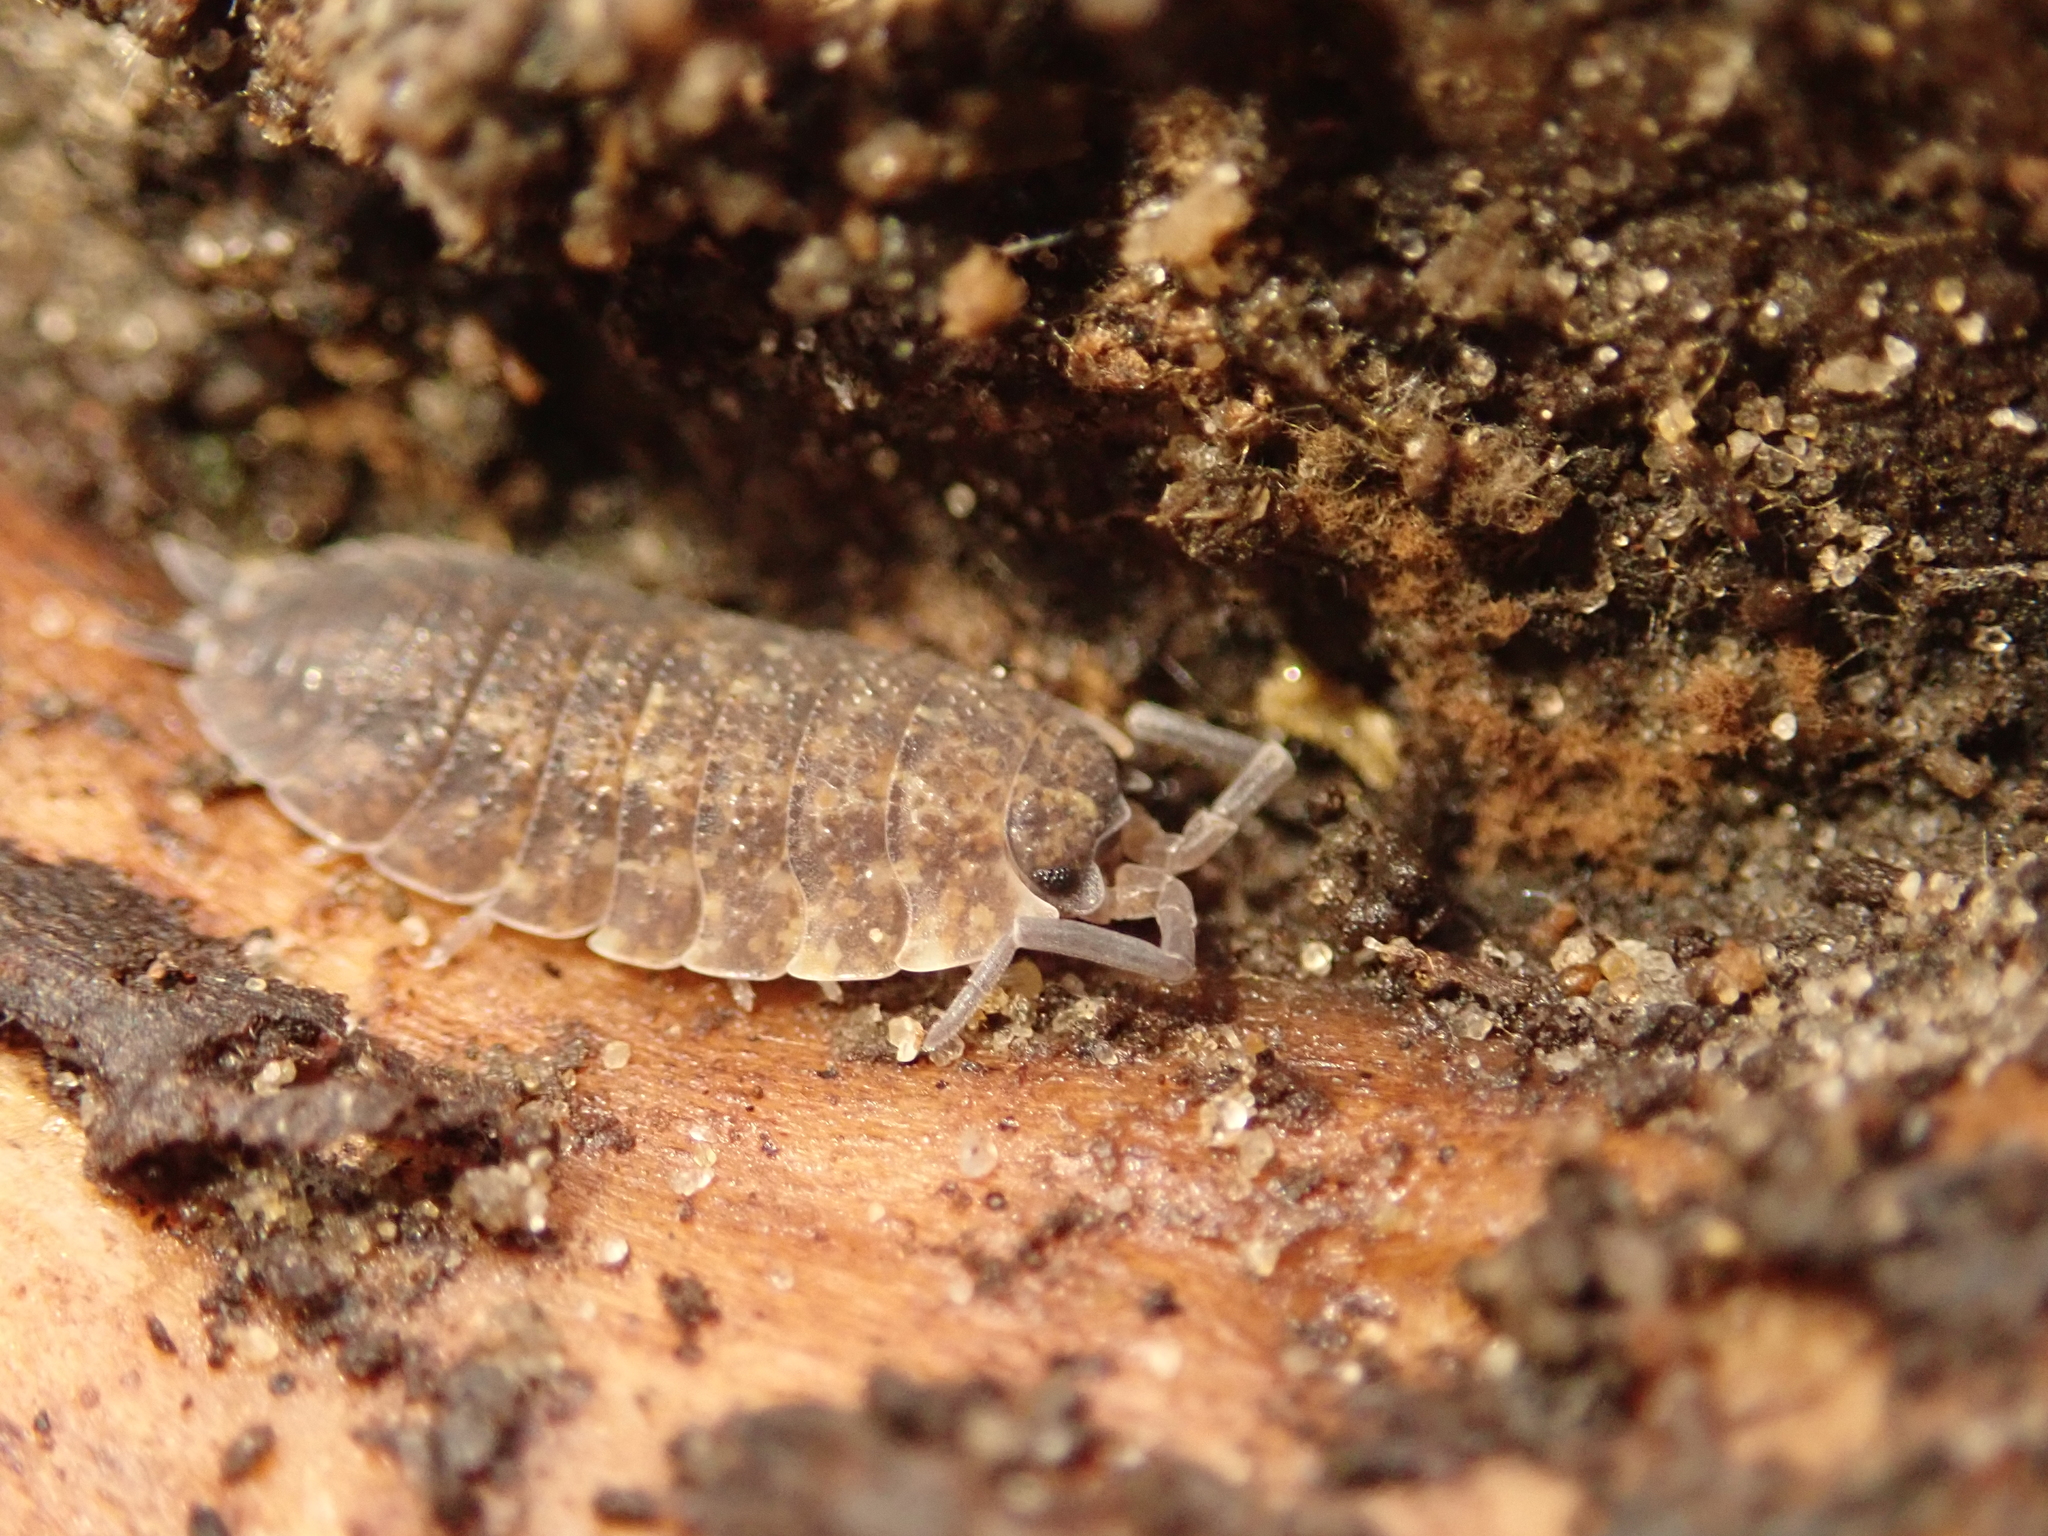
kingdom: Animalia
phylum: Arthropoda
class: Malacostraca
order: Isopoda
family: Porcellionidae
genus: Porcellio
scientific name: Porcellio scaber
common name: Common rough woodlouse
